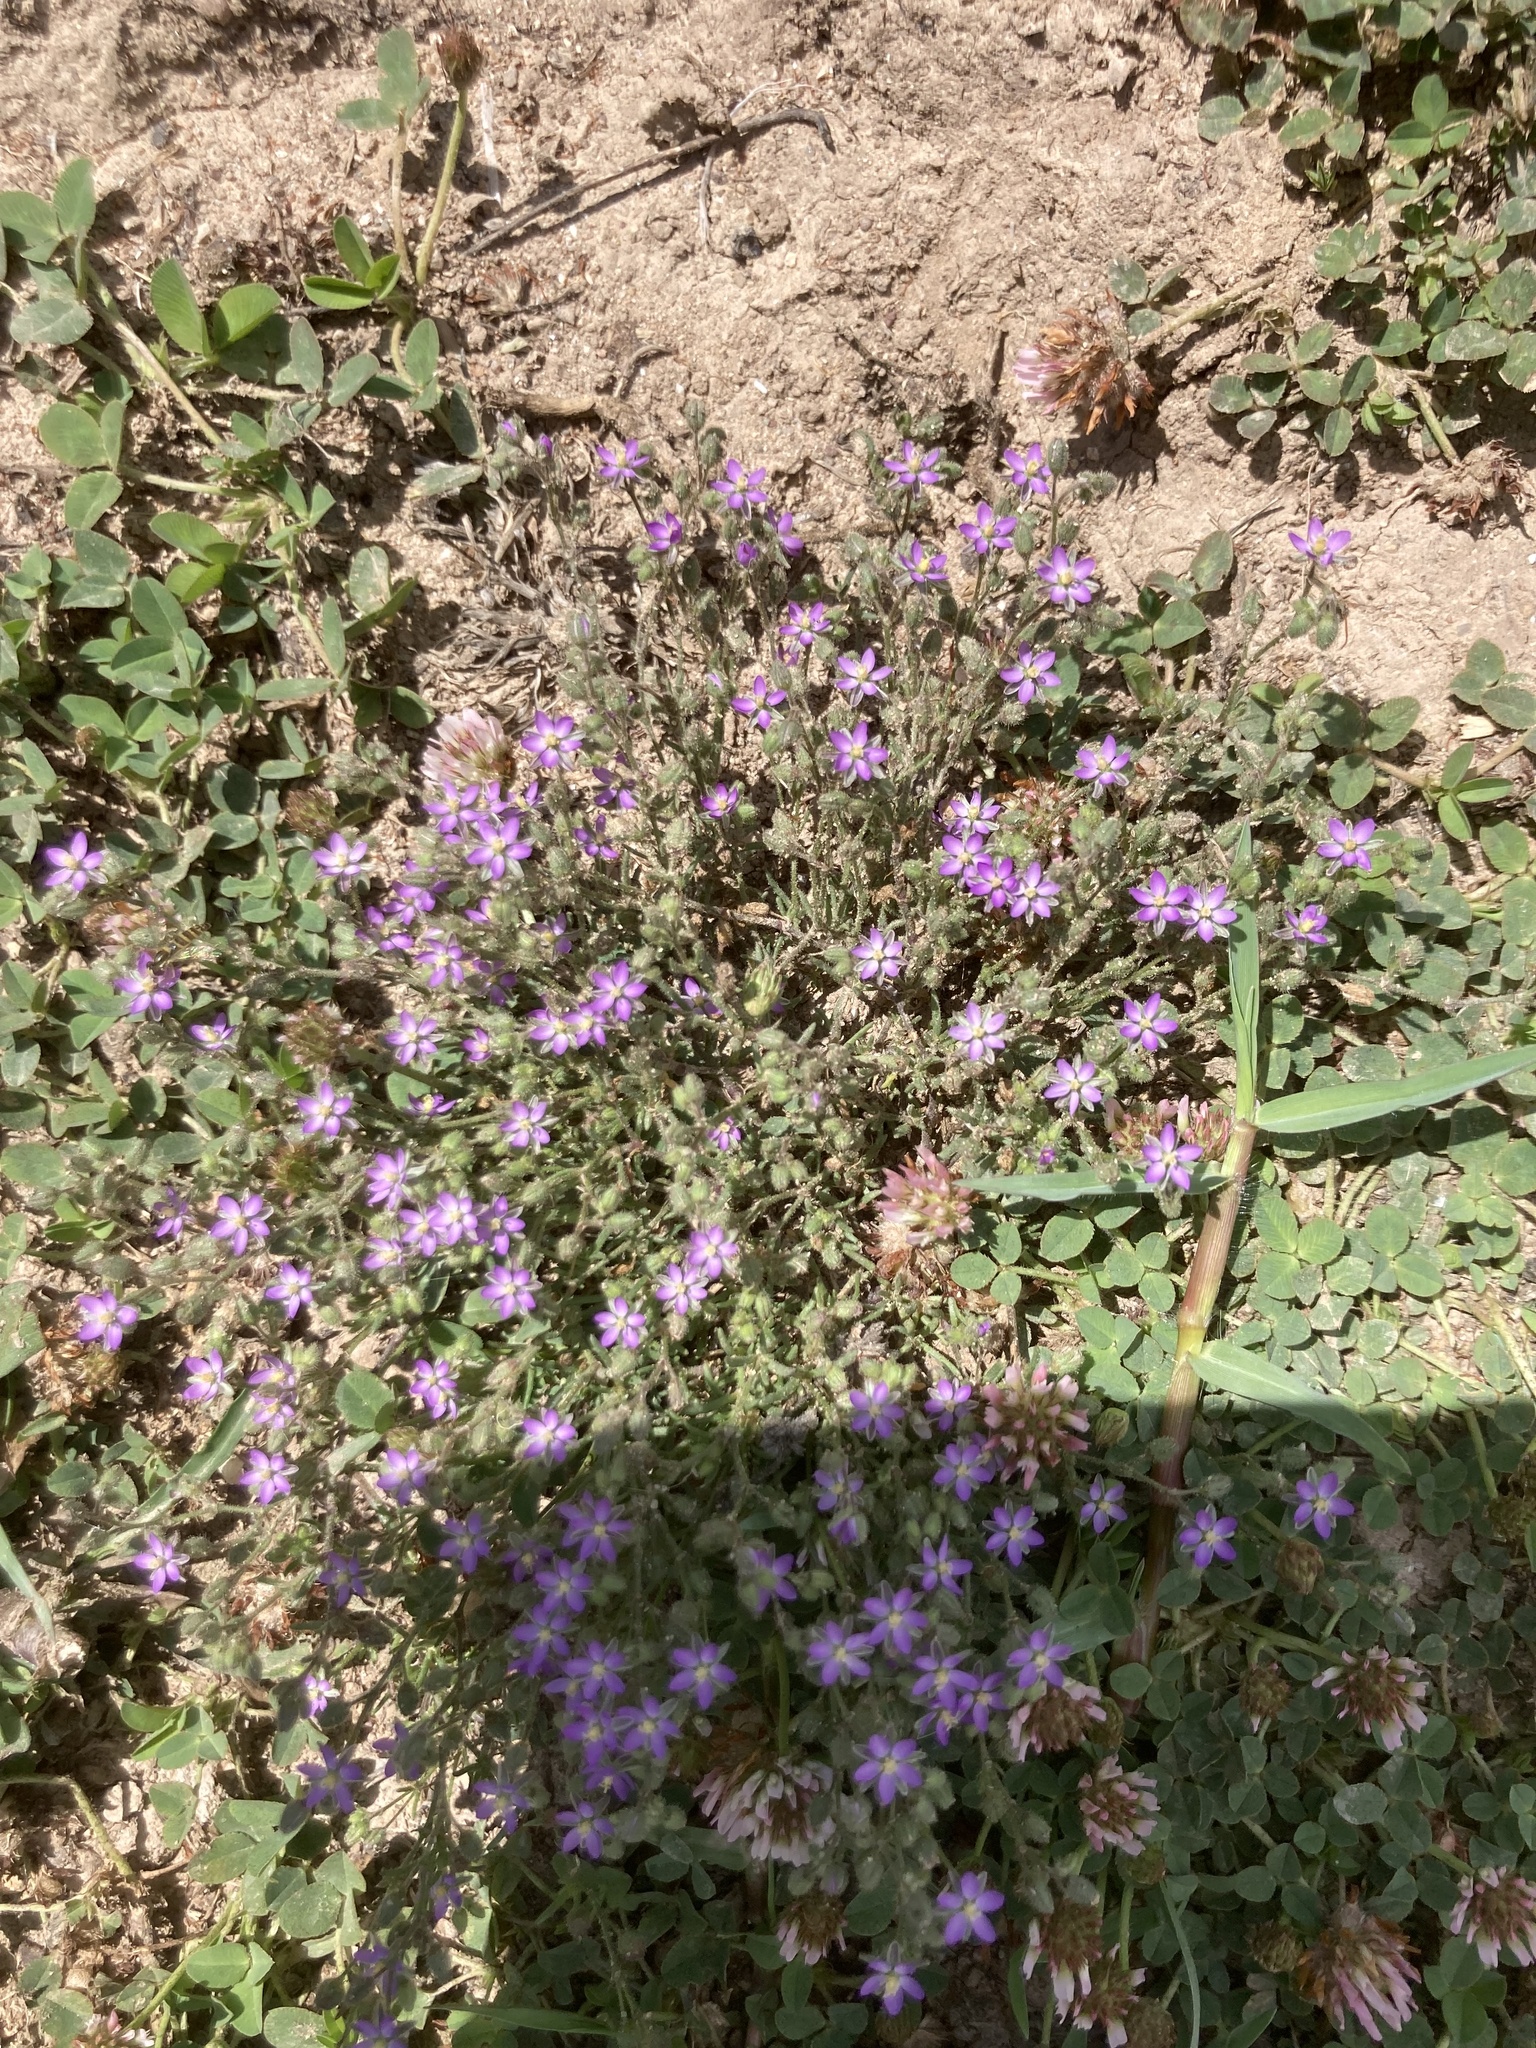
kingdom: Plantae
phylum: Tracheophyta
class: Magnoliopsida
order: Caryophyllales
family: Caryophyllaceae
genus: Spergularia
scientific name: Spergularia purpurea
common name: Purple sandspurry
